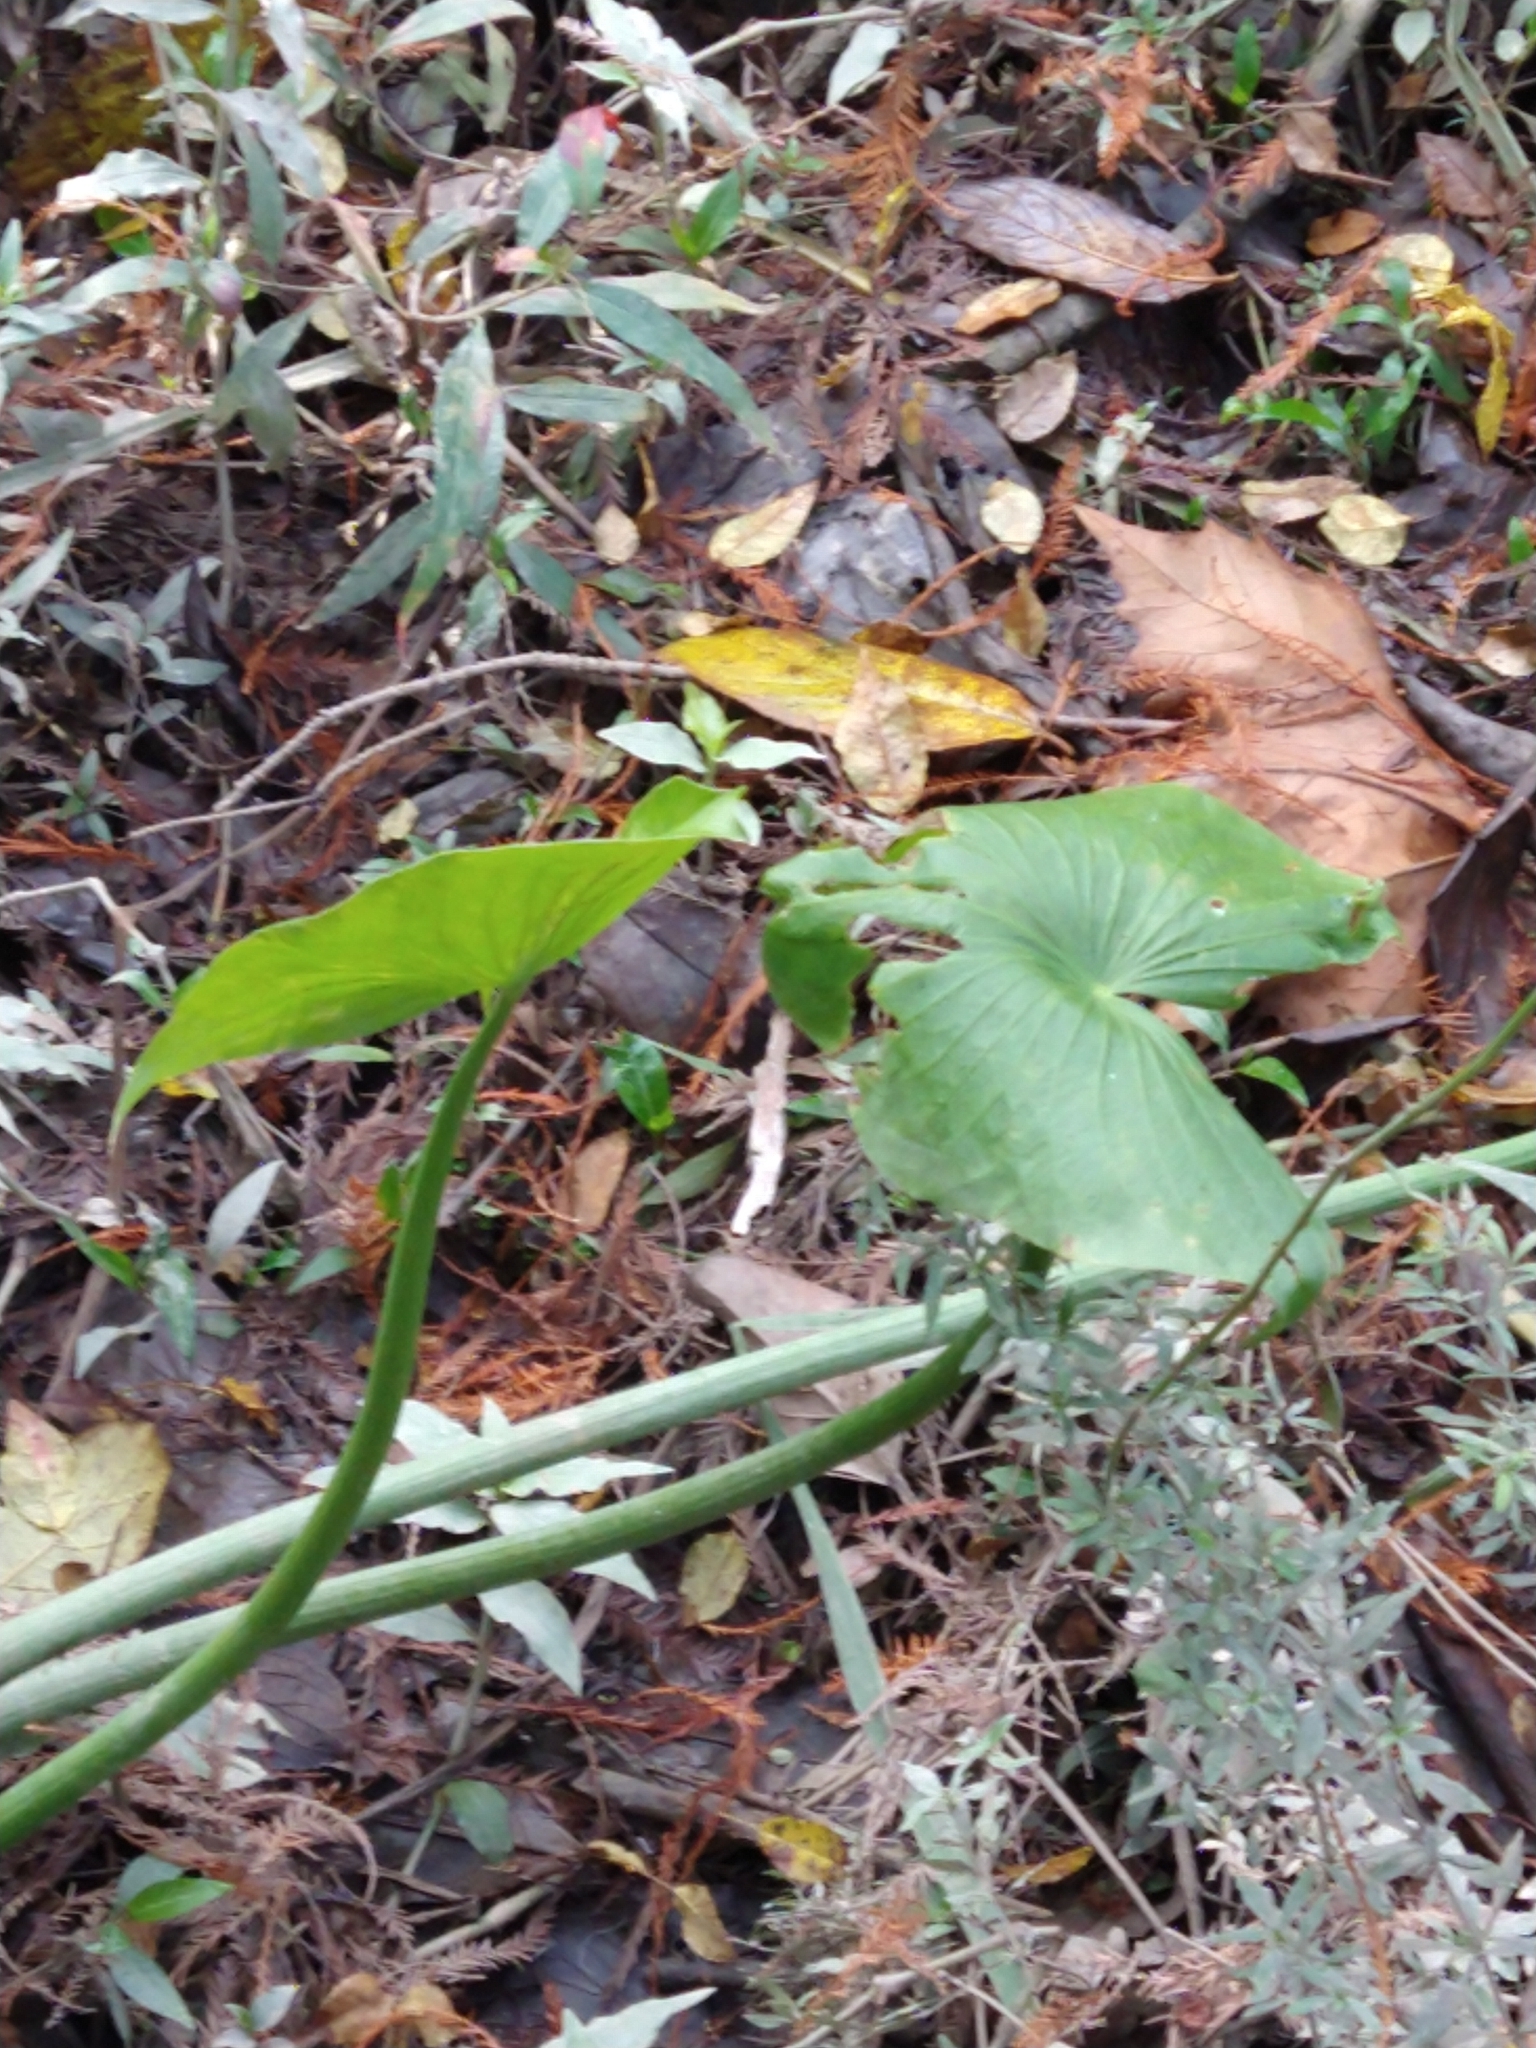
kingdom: Plantae
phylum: Tracheophyta
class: Liliopsida
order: Alismatales
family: Alismataceae
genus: Sagittaria
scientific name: Sagittaria montevidensis
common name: Giant arrowhead
